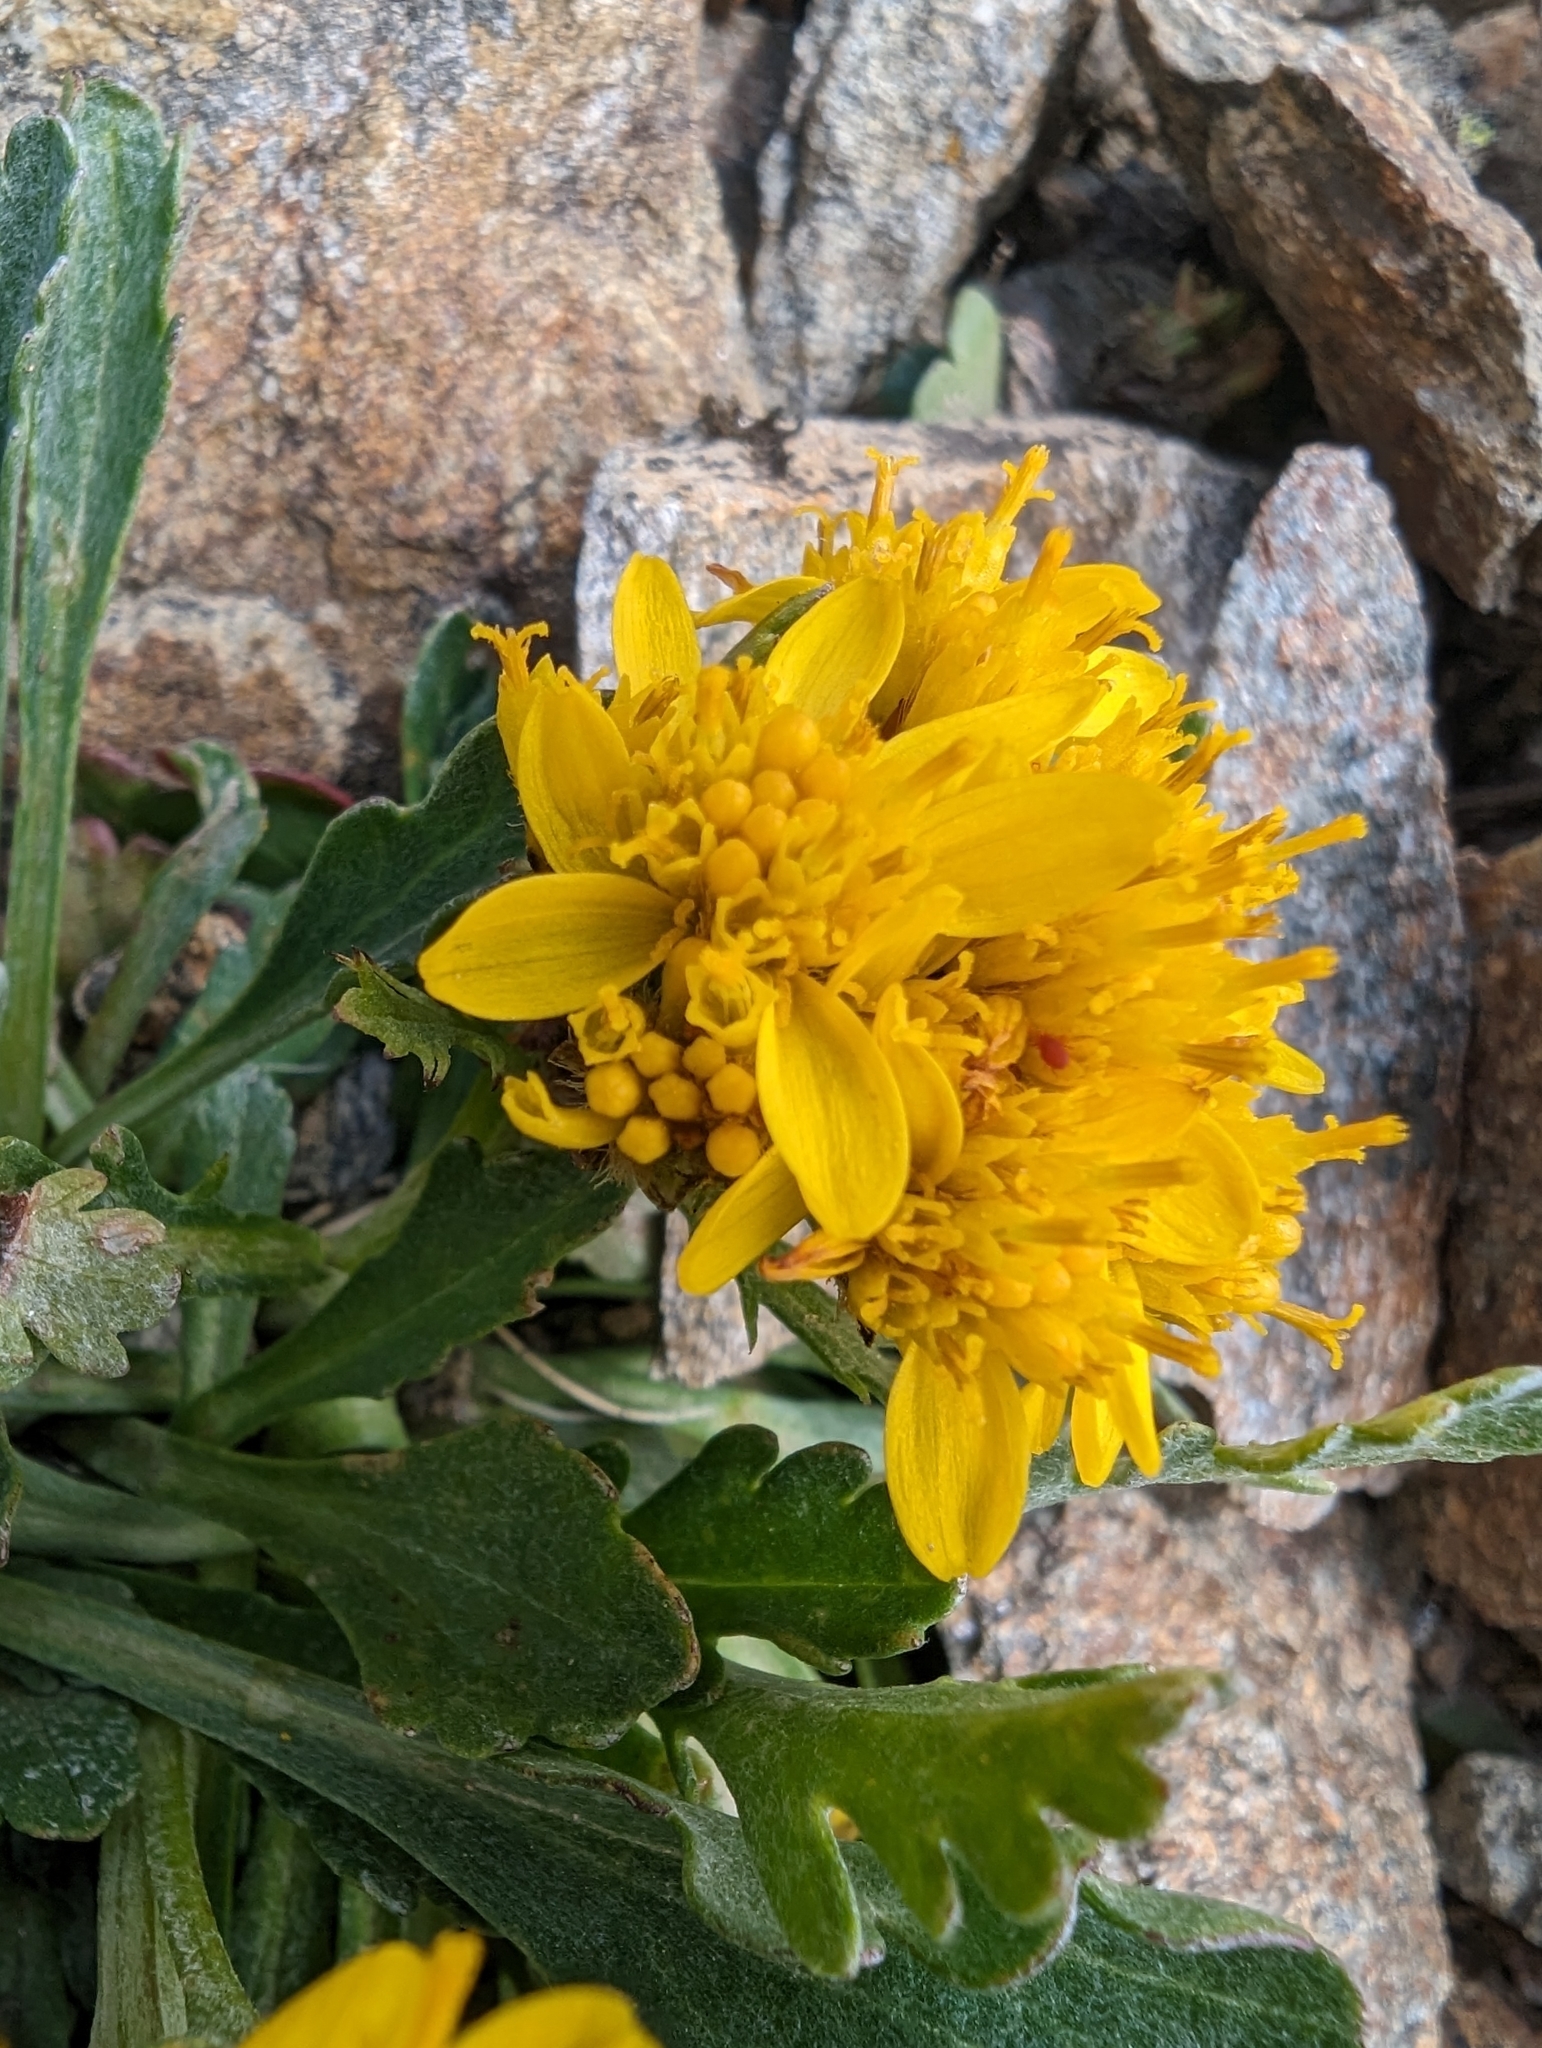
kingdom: Plantae
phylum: Tracheophyta
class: Magnoliopsida
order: Asterales
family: Asteraceae
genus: Jacobaea
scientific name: Jacobaea carniolica
